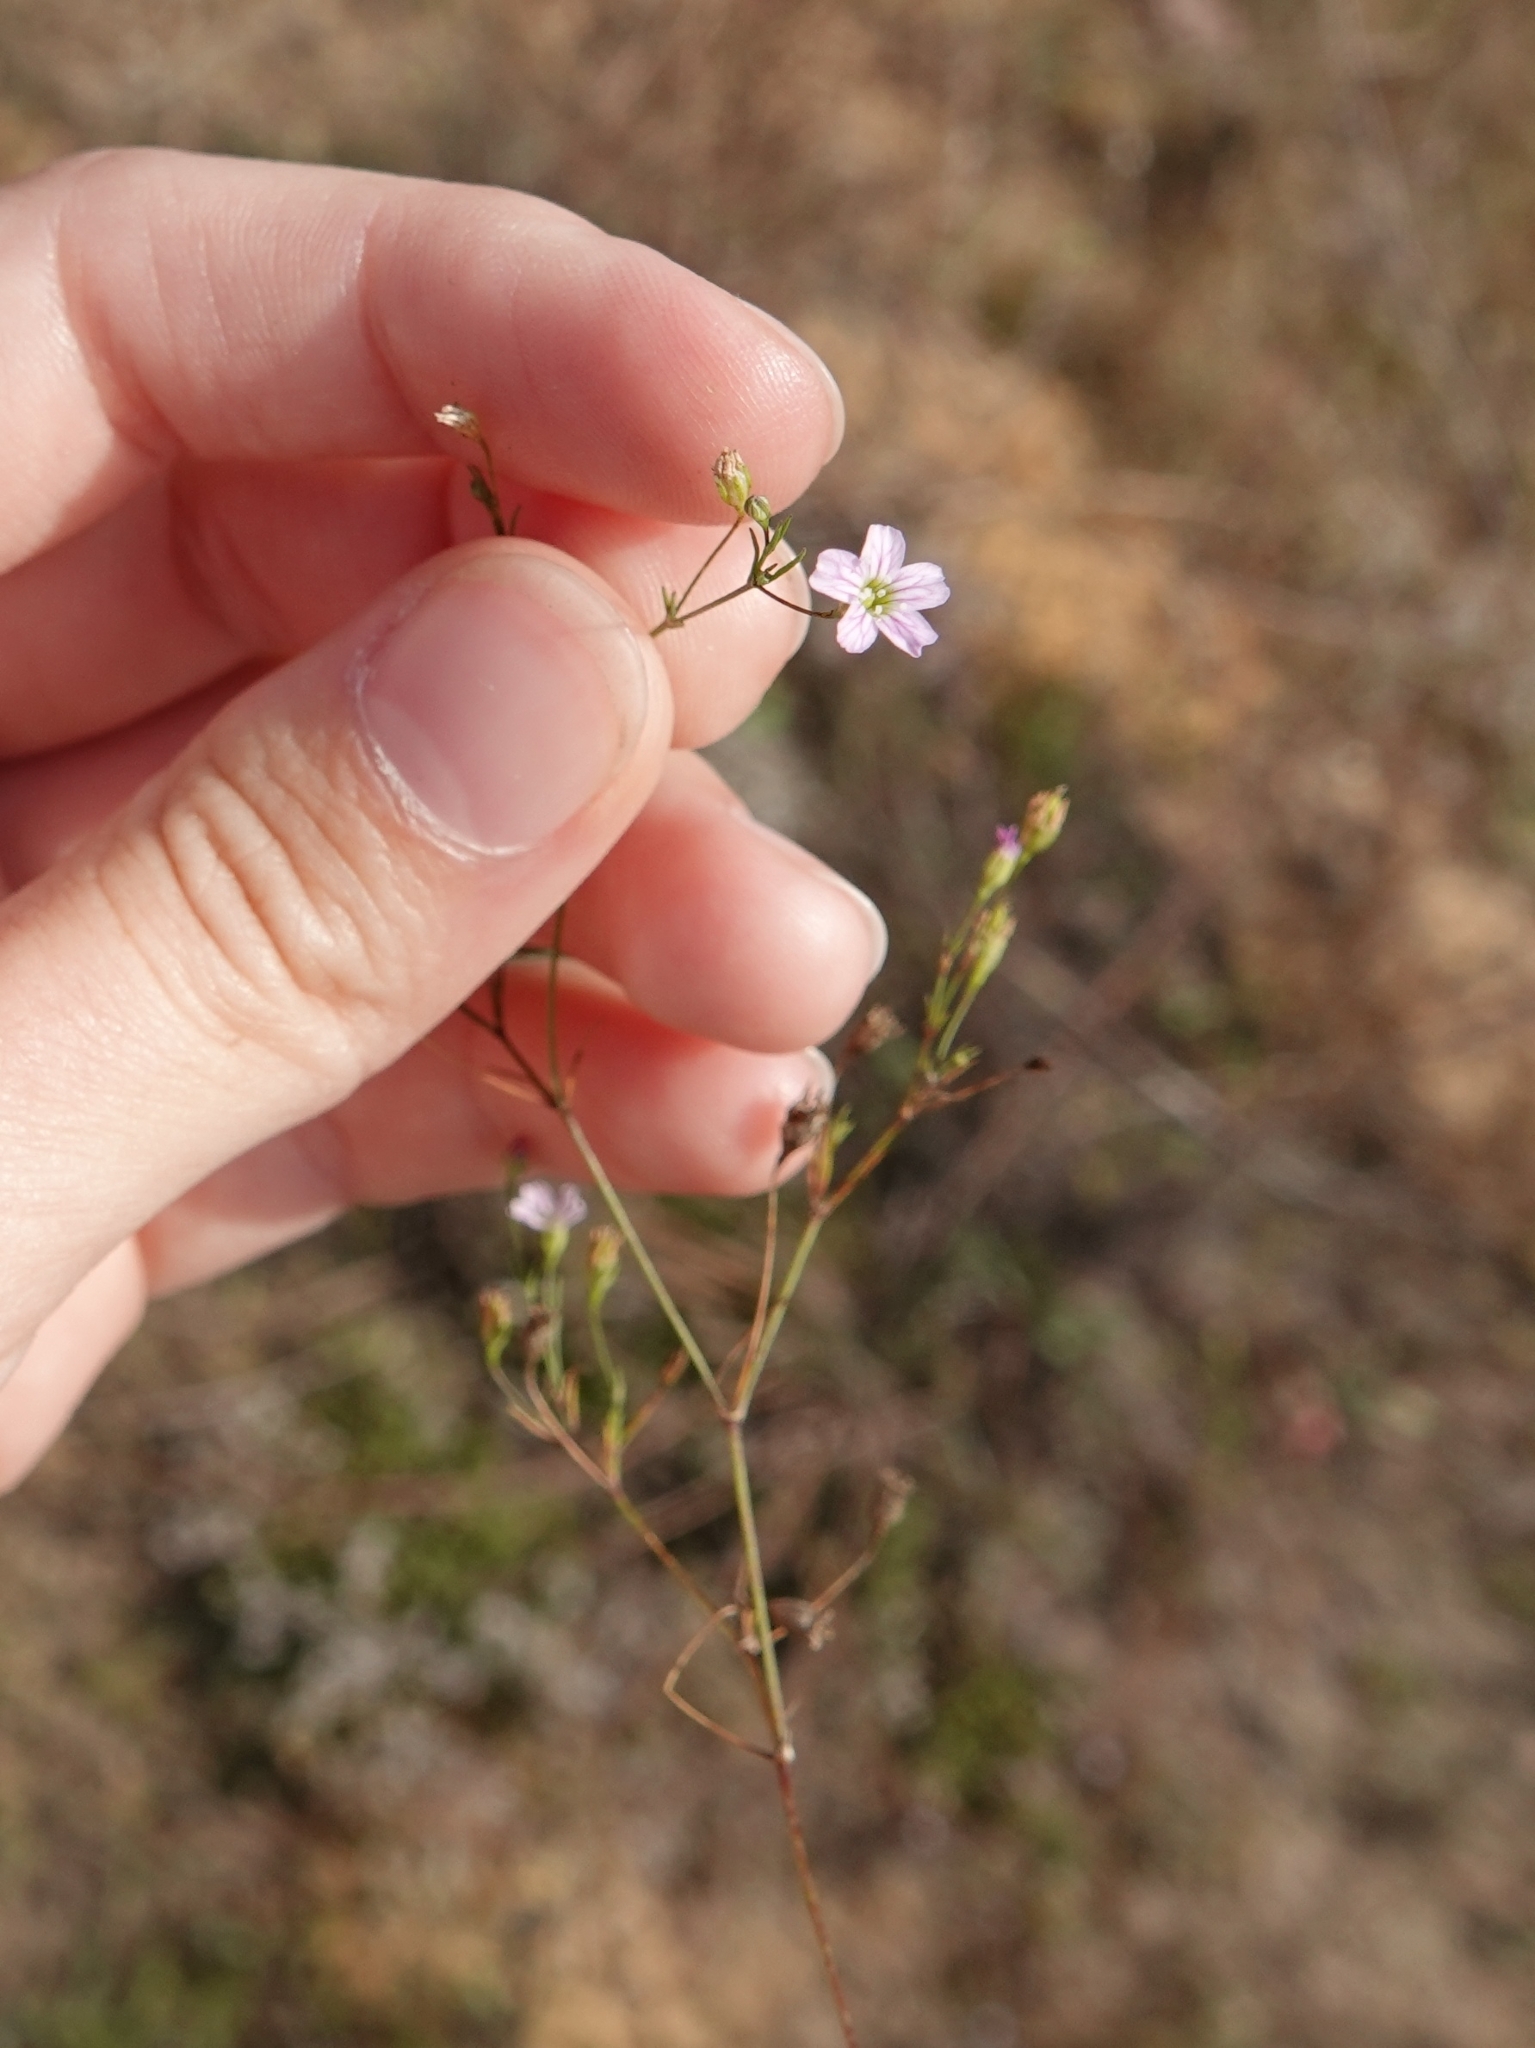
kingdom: Plantae
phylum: Tracheophyta
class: Magnoliopsida
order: Caryophyllales
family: Caryophyllaceae
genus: Psammophiliella
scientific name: Psammophiliella muralis
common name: Cushion baby's-breath
